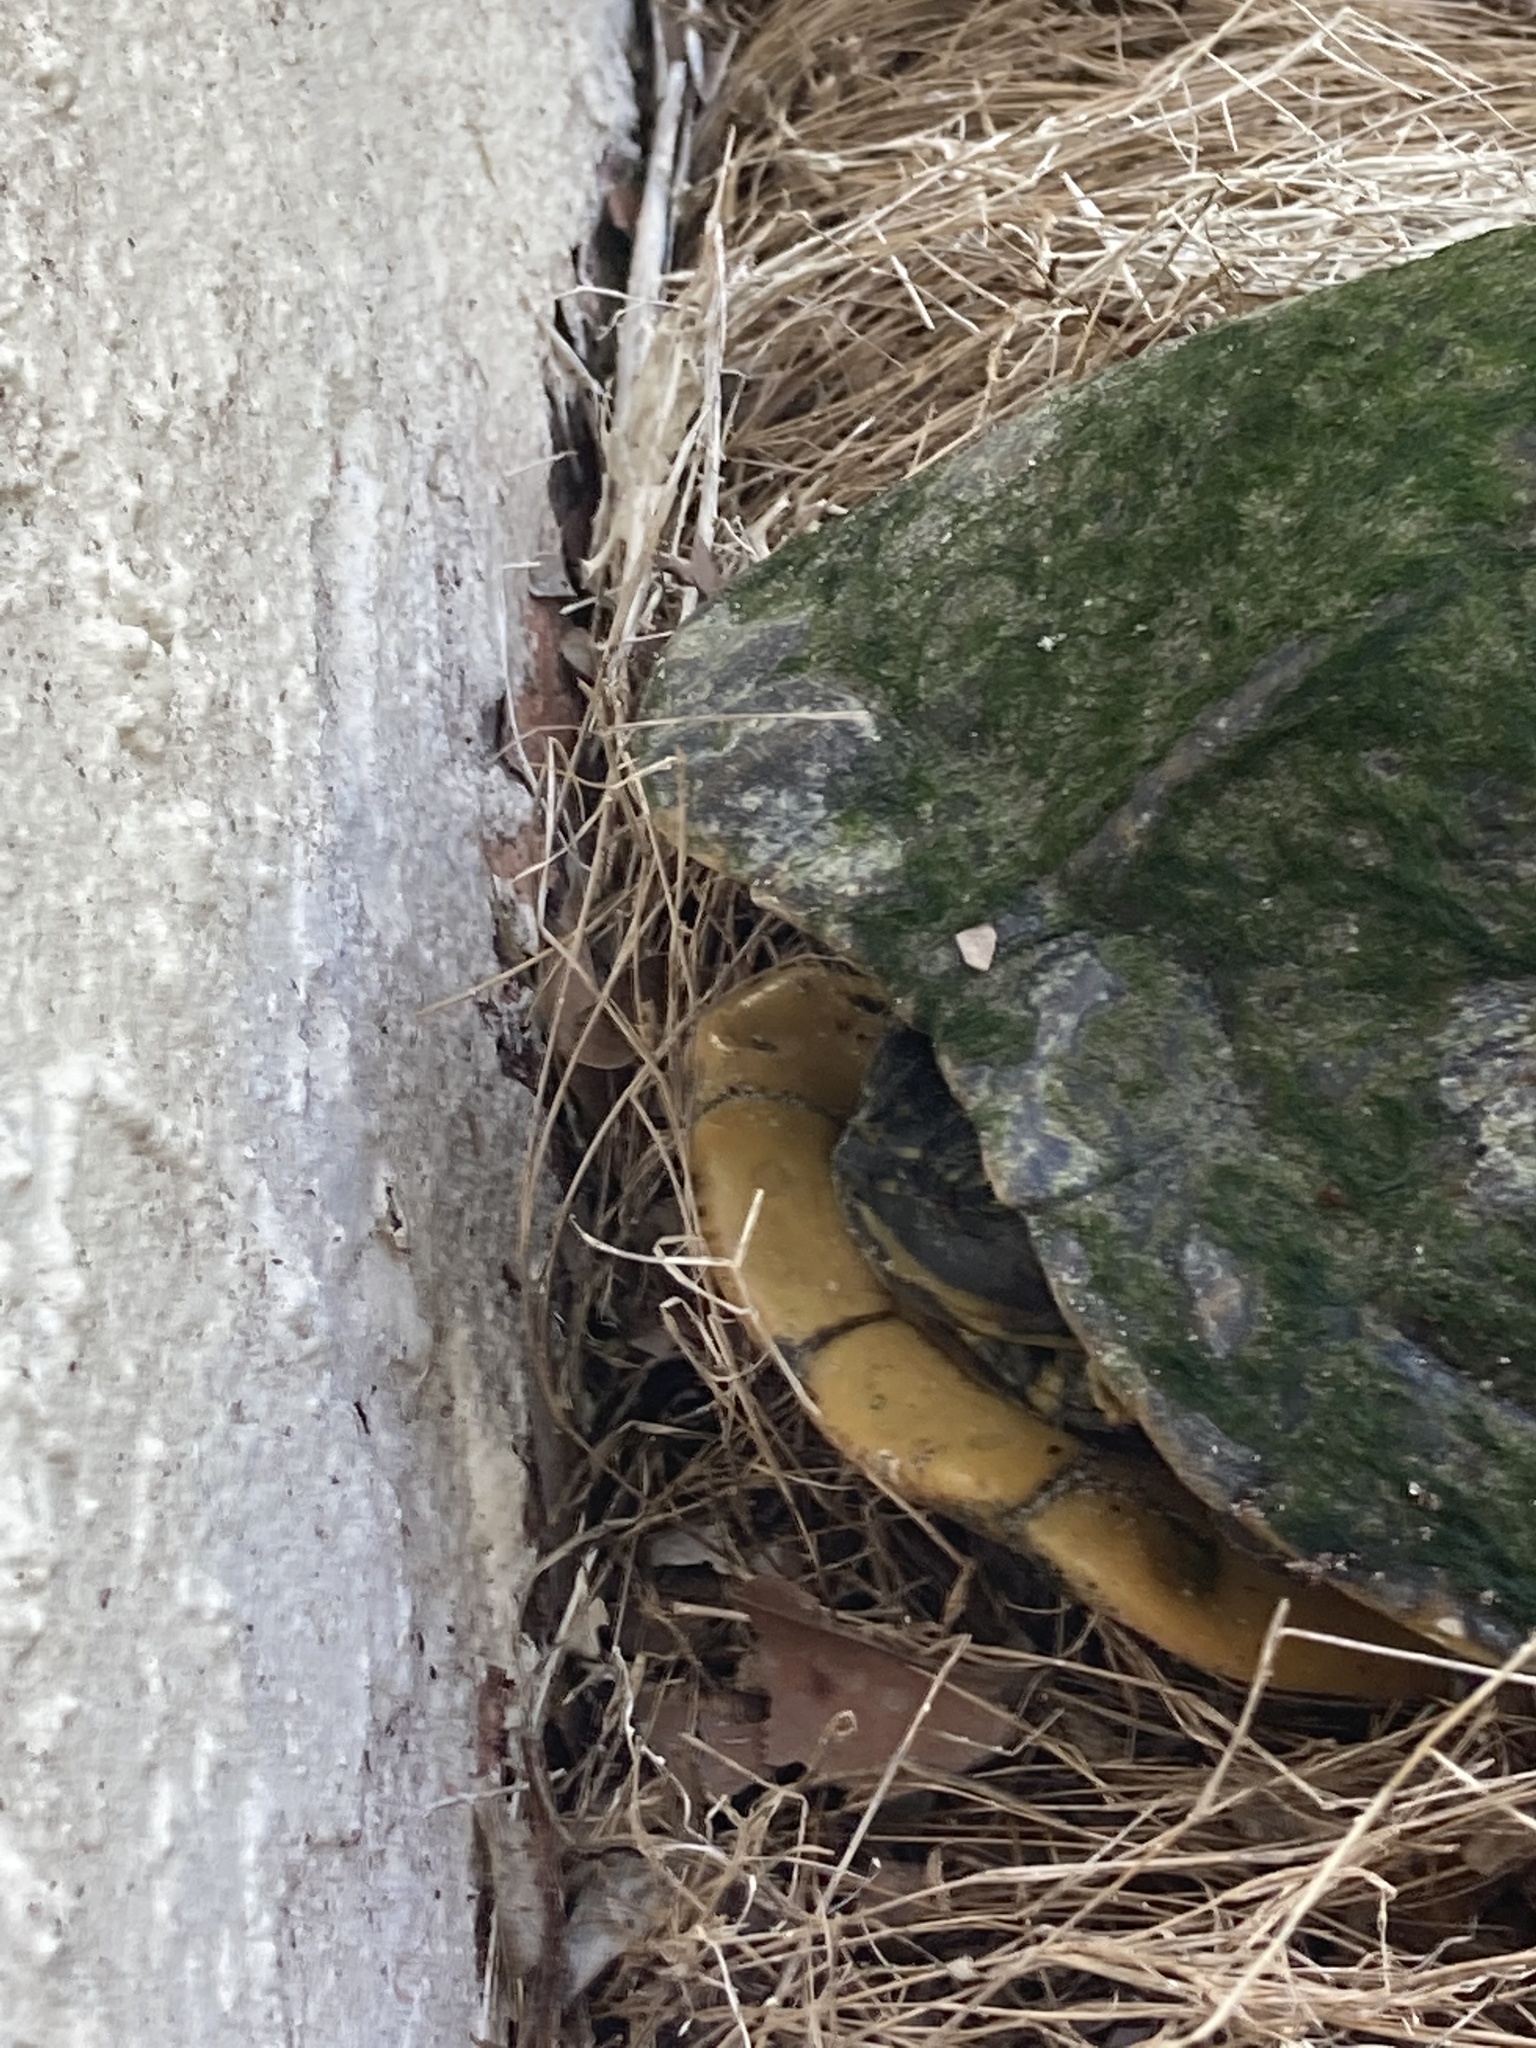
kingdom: Animalia
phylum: Chordata
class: Testudines
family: Emydidae
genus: Trachemys
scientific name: Trachemys scripta
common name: Slider
